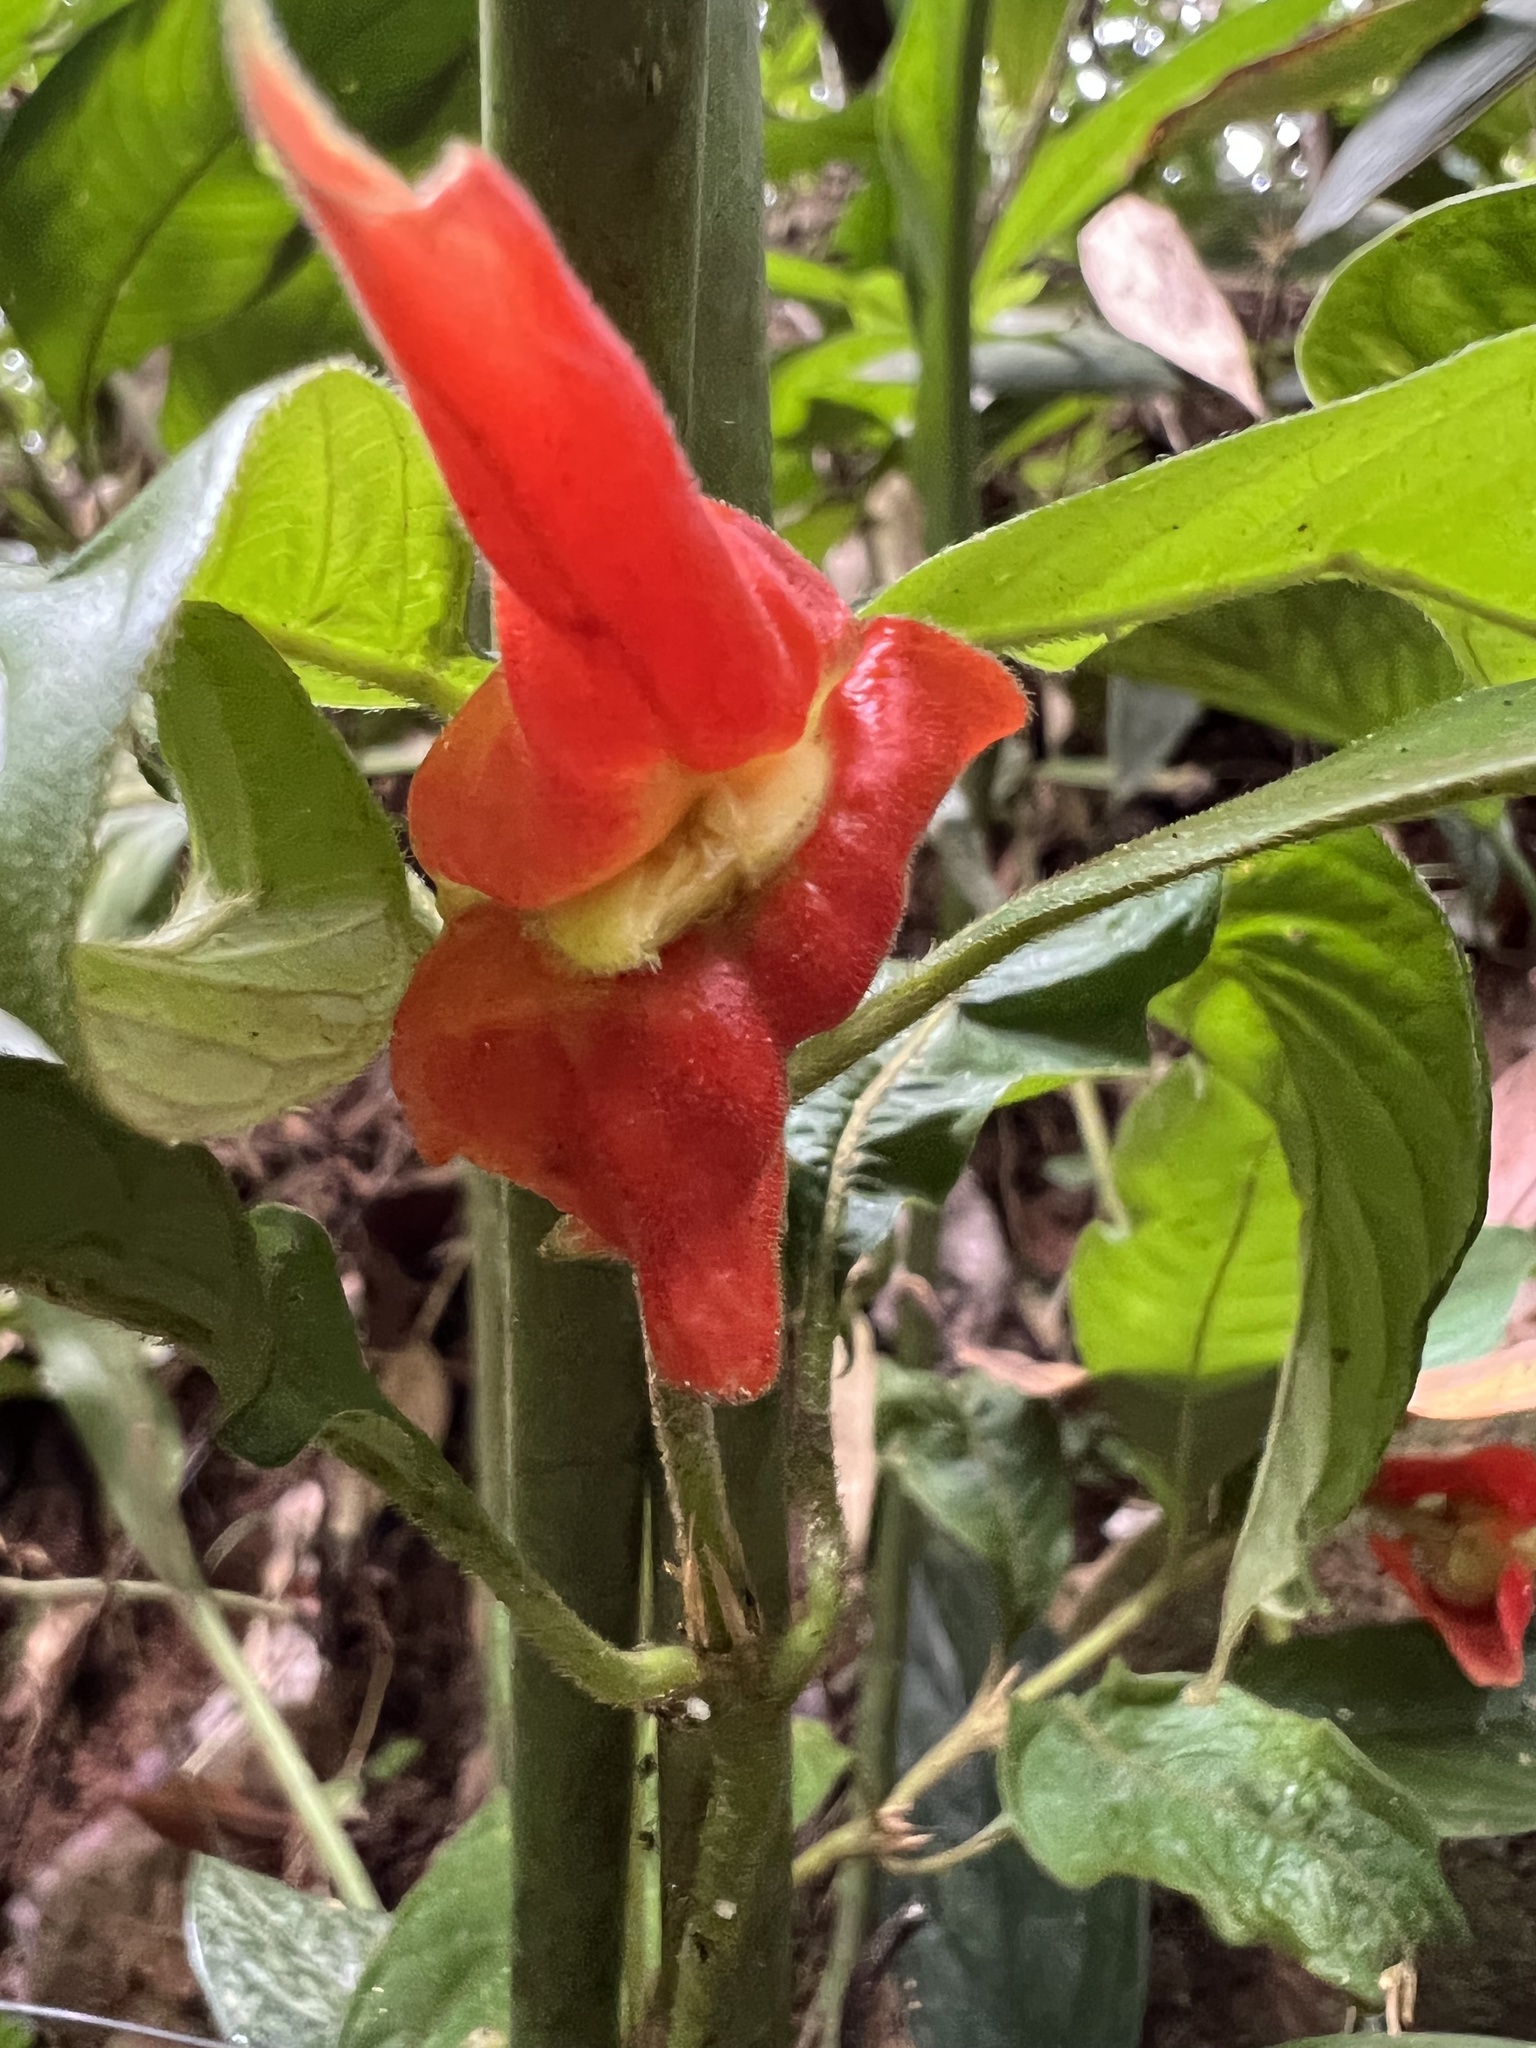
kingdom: Plantae
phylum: Tracheophyta
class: Magnoliopsida
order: Gentianales
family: Rubiaceae
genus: Palicourea
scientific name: Palicourea tomentosa
